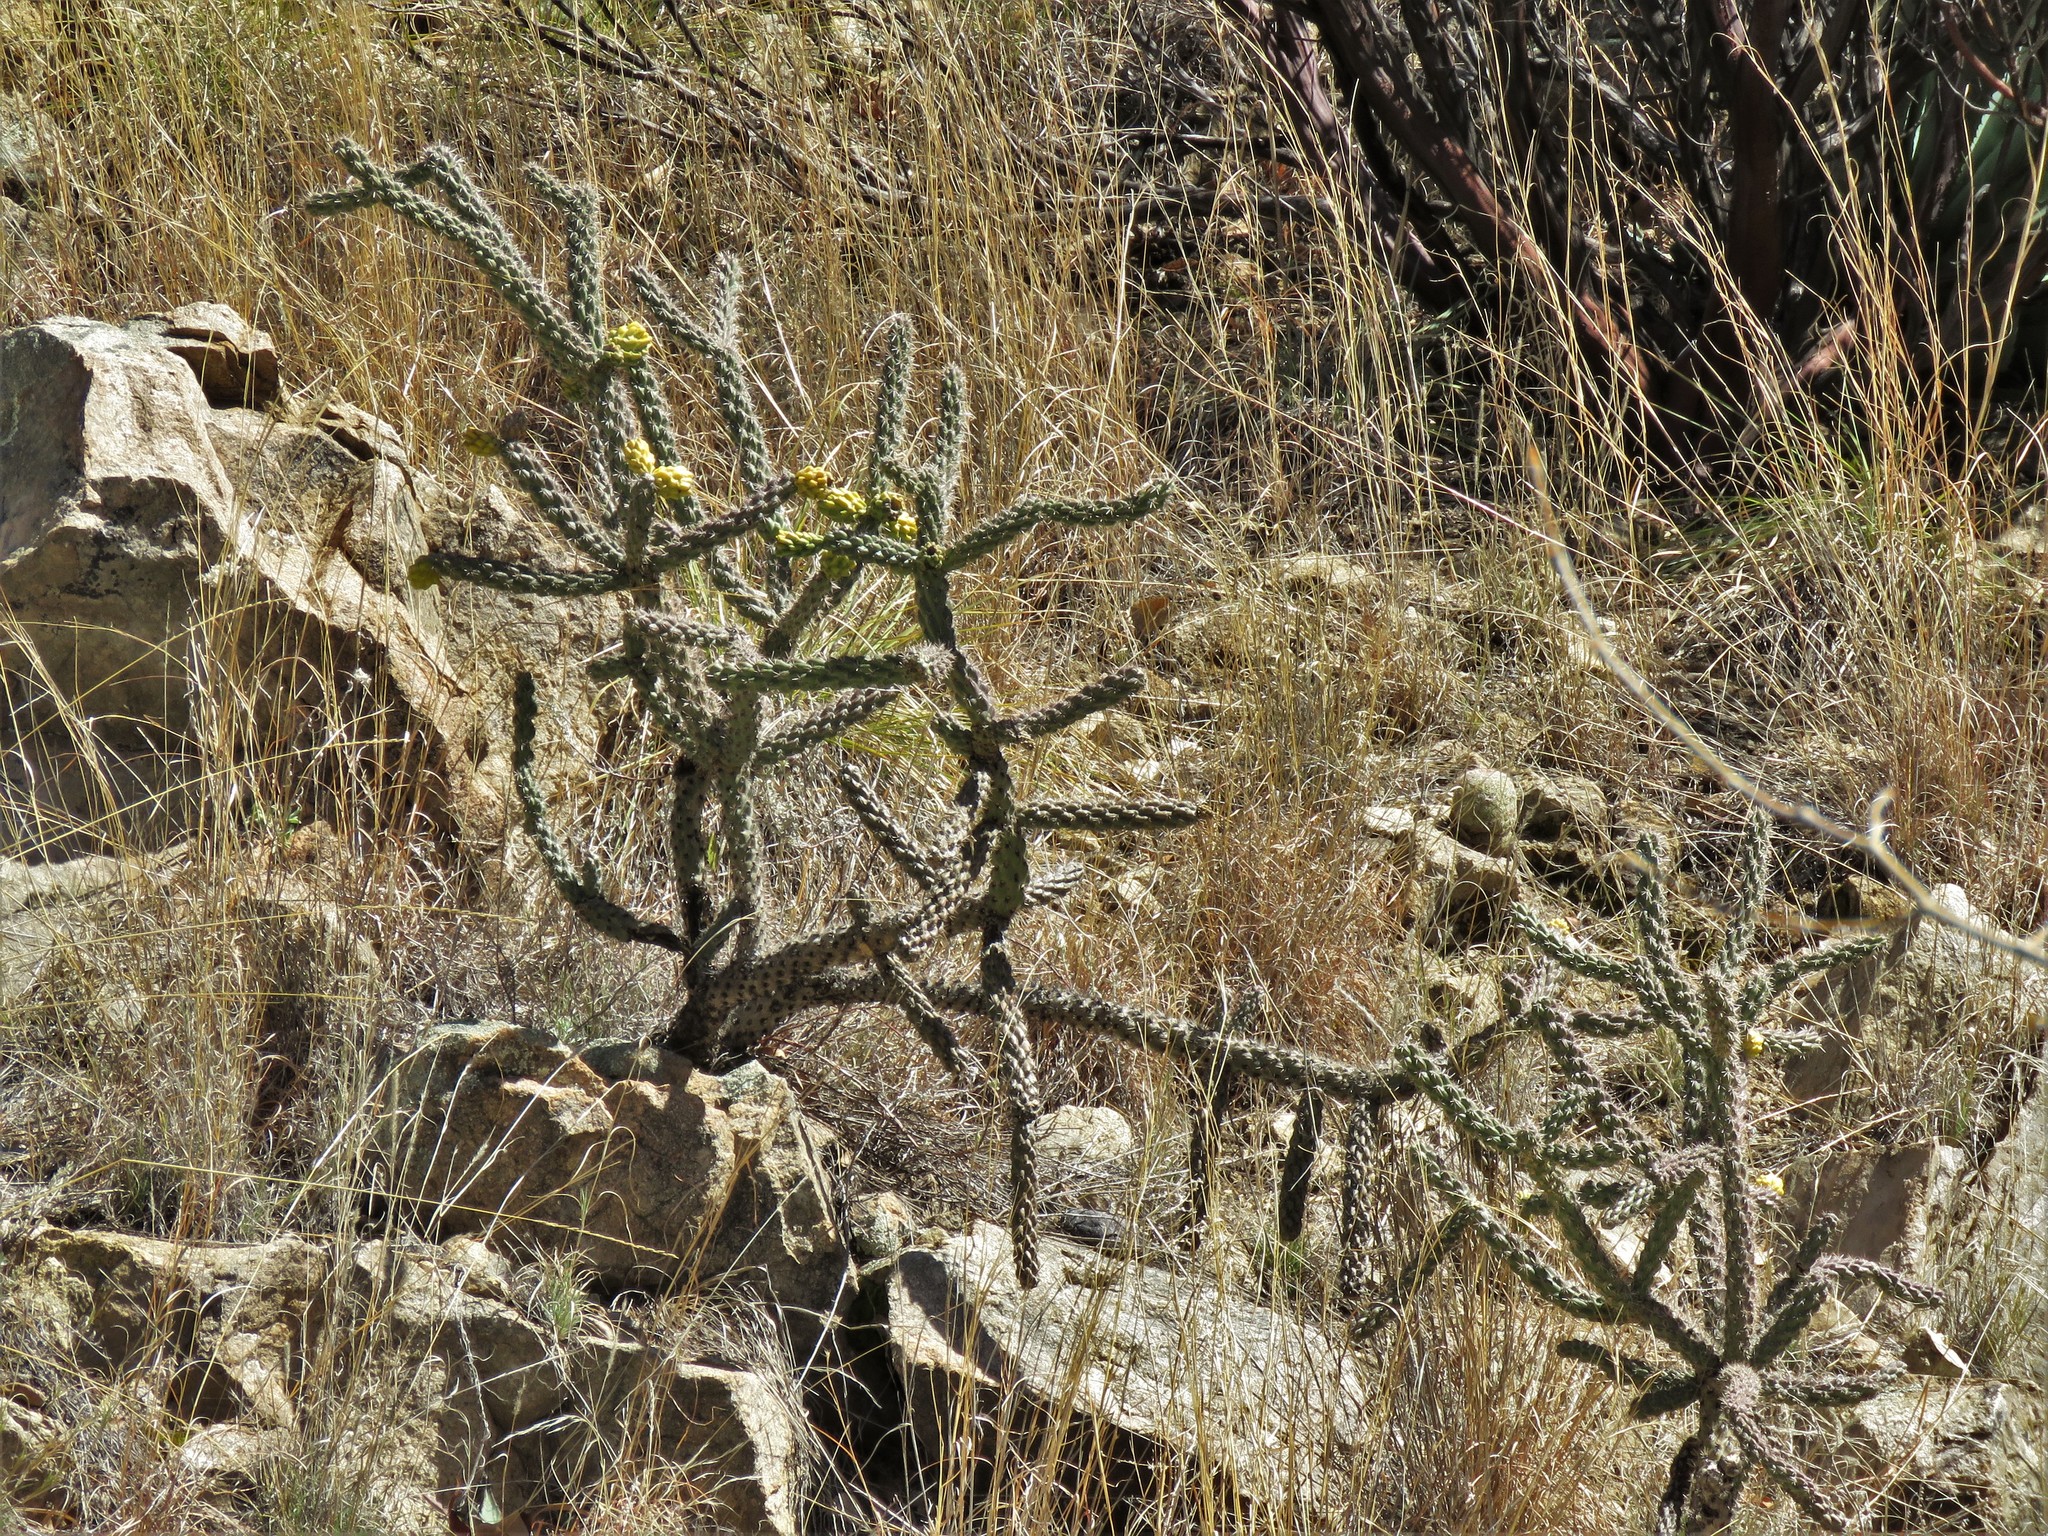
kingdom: Plantae
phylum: Tracheophyta
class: Magnoliopsida
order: Caryophyllales
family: Cactaceae
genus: Cylindropuntia
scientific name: Cylindropuntia imbricata
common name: Candelabrum cactus
